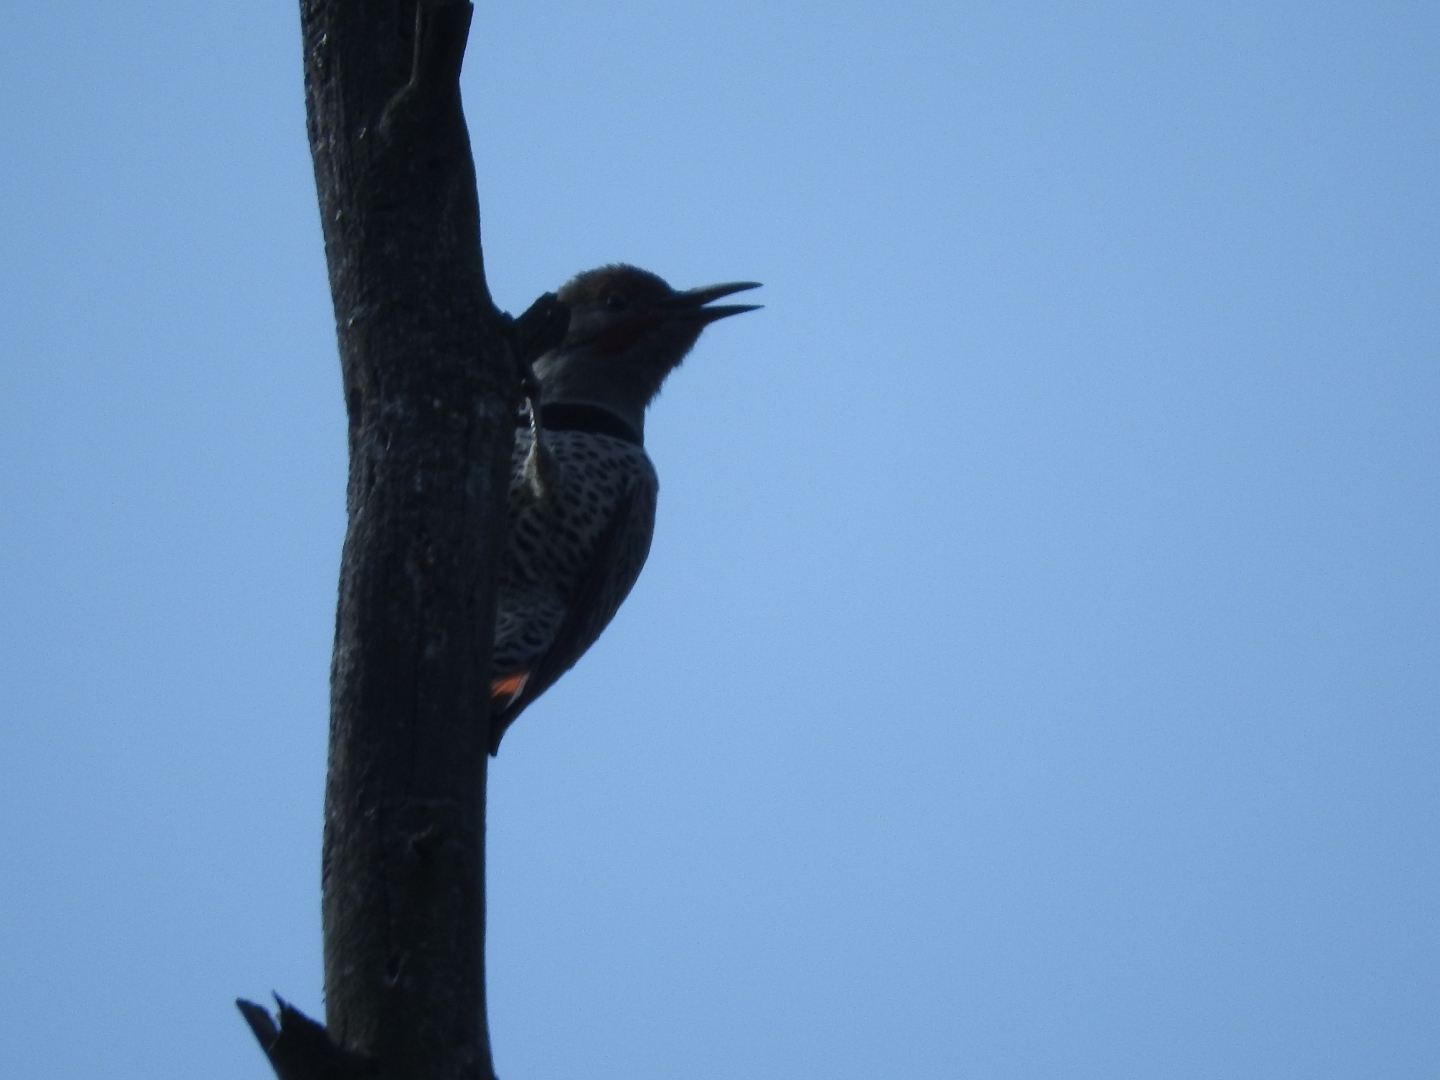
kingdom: Animalia
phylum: Chordata
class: Aves
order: Piciformes
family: Picidae
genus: Colaptes
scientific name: Colaptes auratus
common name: Northern flicker
